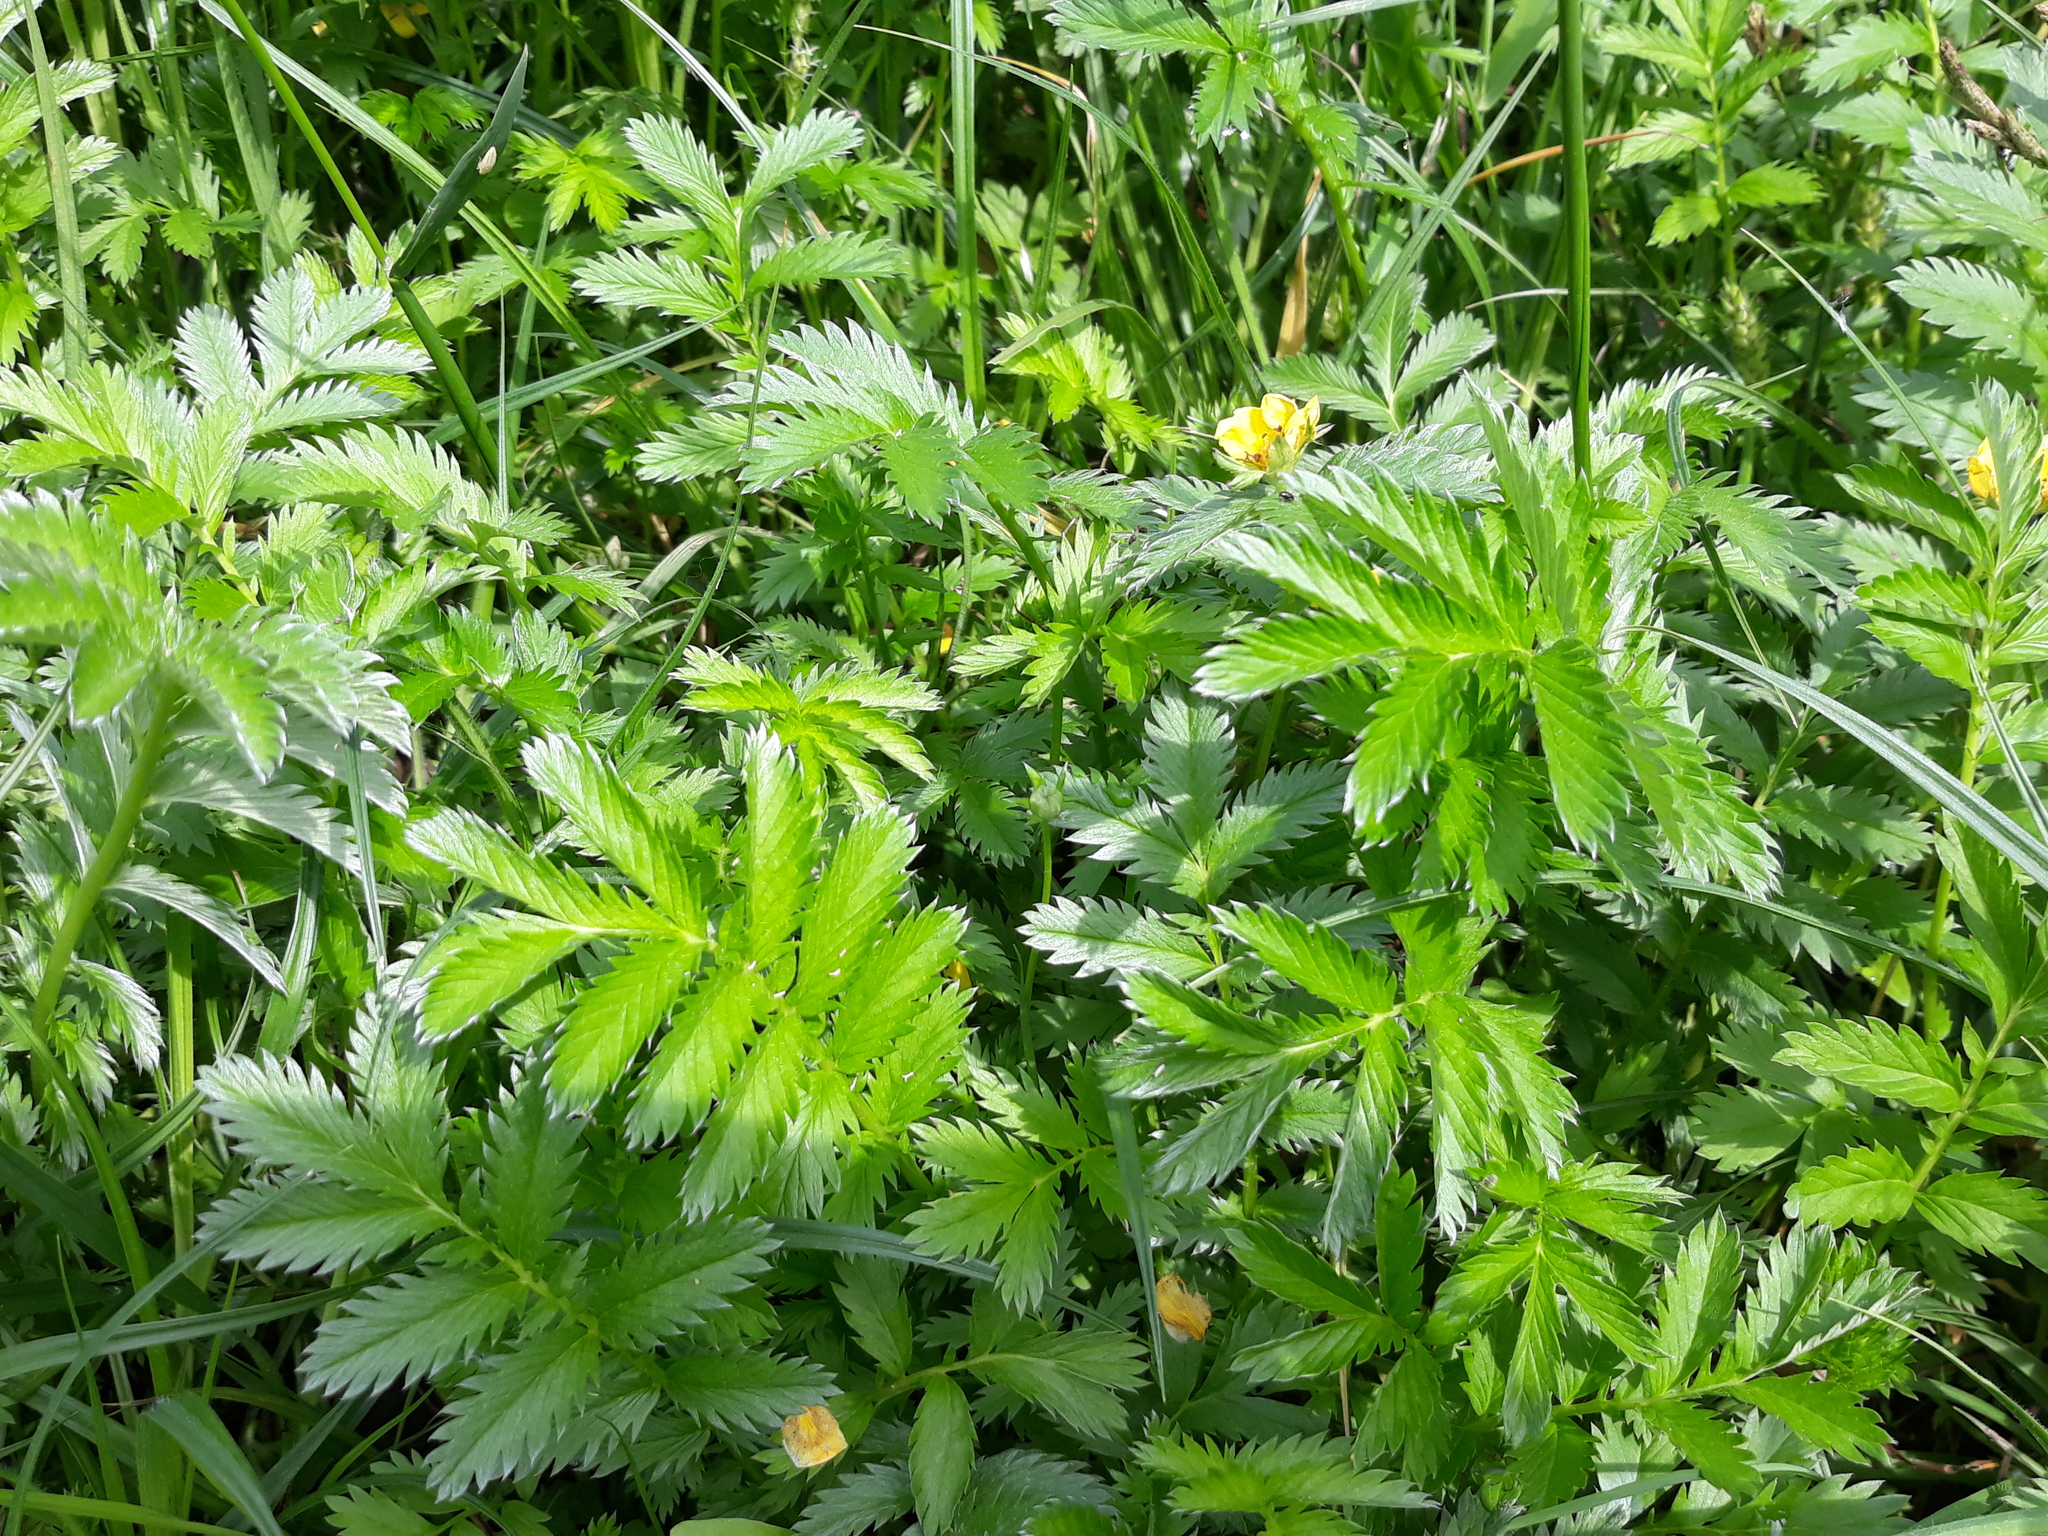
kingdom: Plantae
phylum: Tracheophyta
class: Magnoliopsida
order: Rosales
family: Rosaceae
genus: Argentina
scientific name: Argentina anserina
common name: Common silverweed
